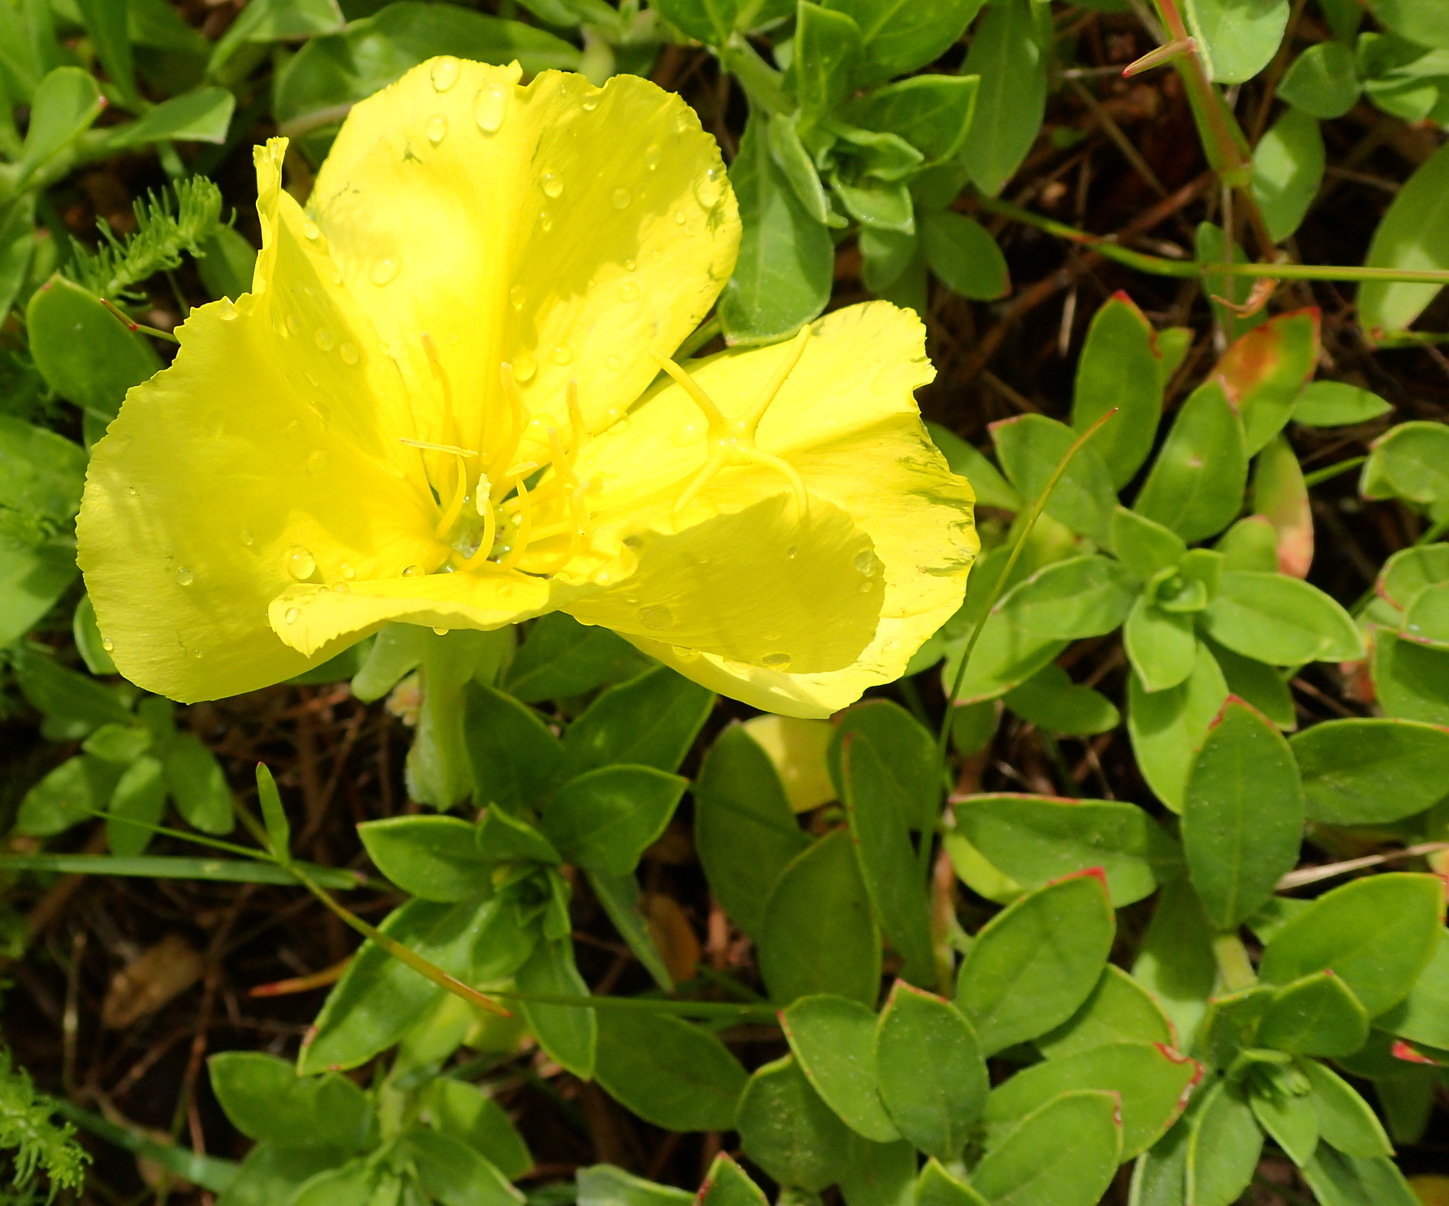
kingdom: Plantae
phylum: Tracheophyta
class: Magnoliopsida
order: Myrtales
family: Onagraceae
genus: Oenothera
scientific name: Oenothera drummondii
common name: Beach evening-primrose
